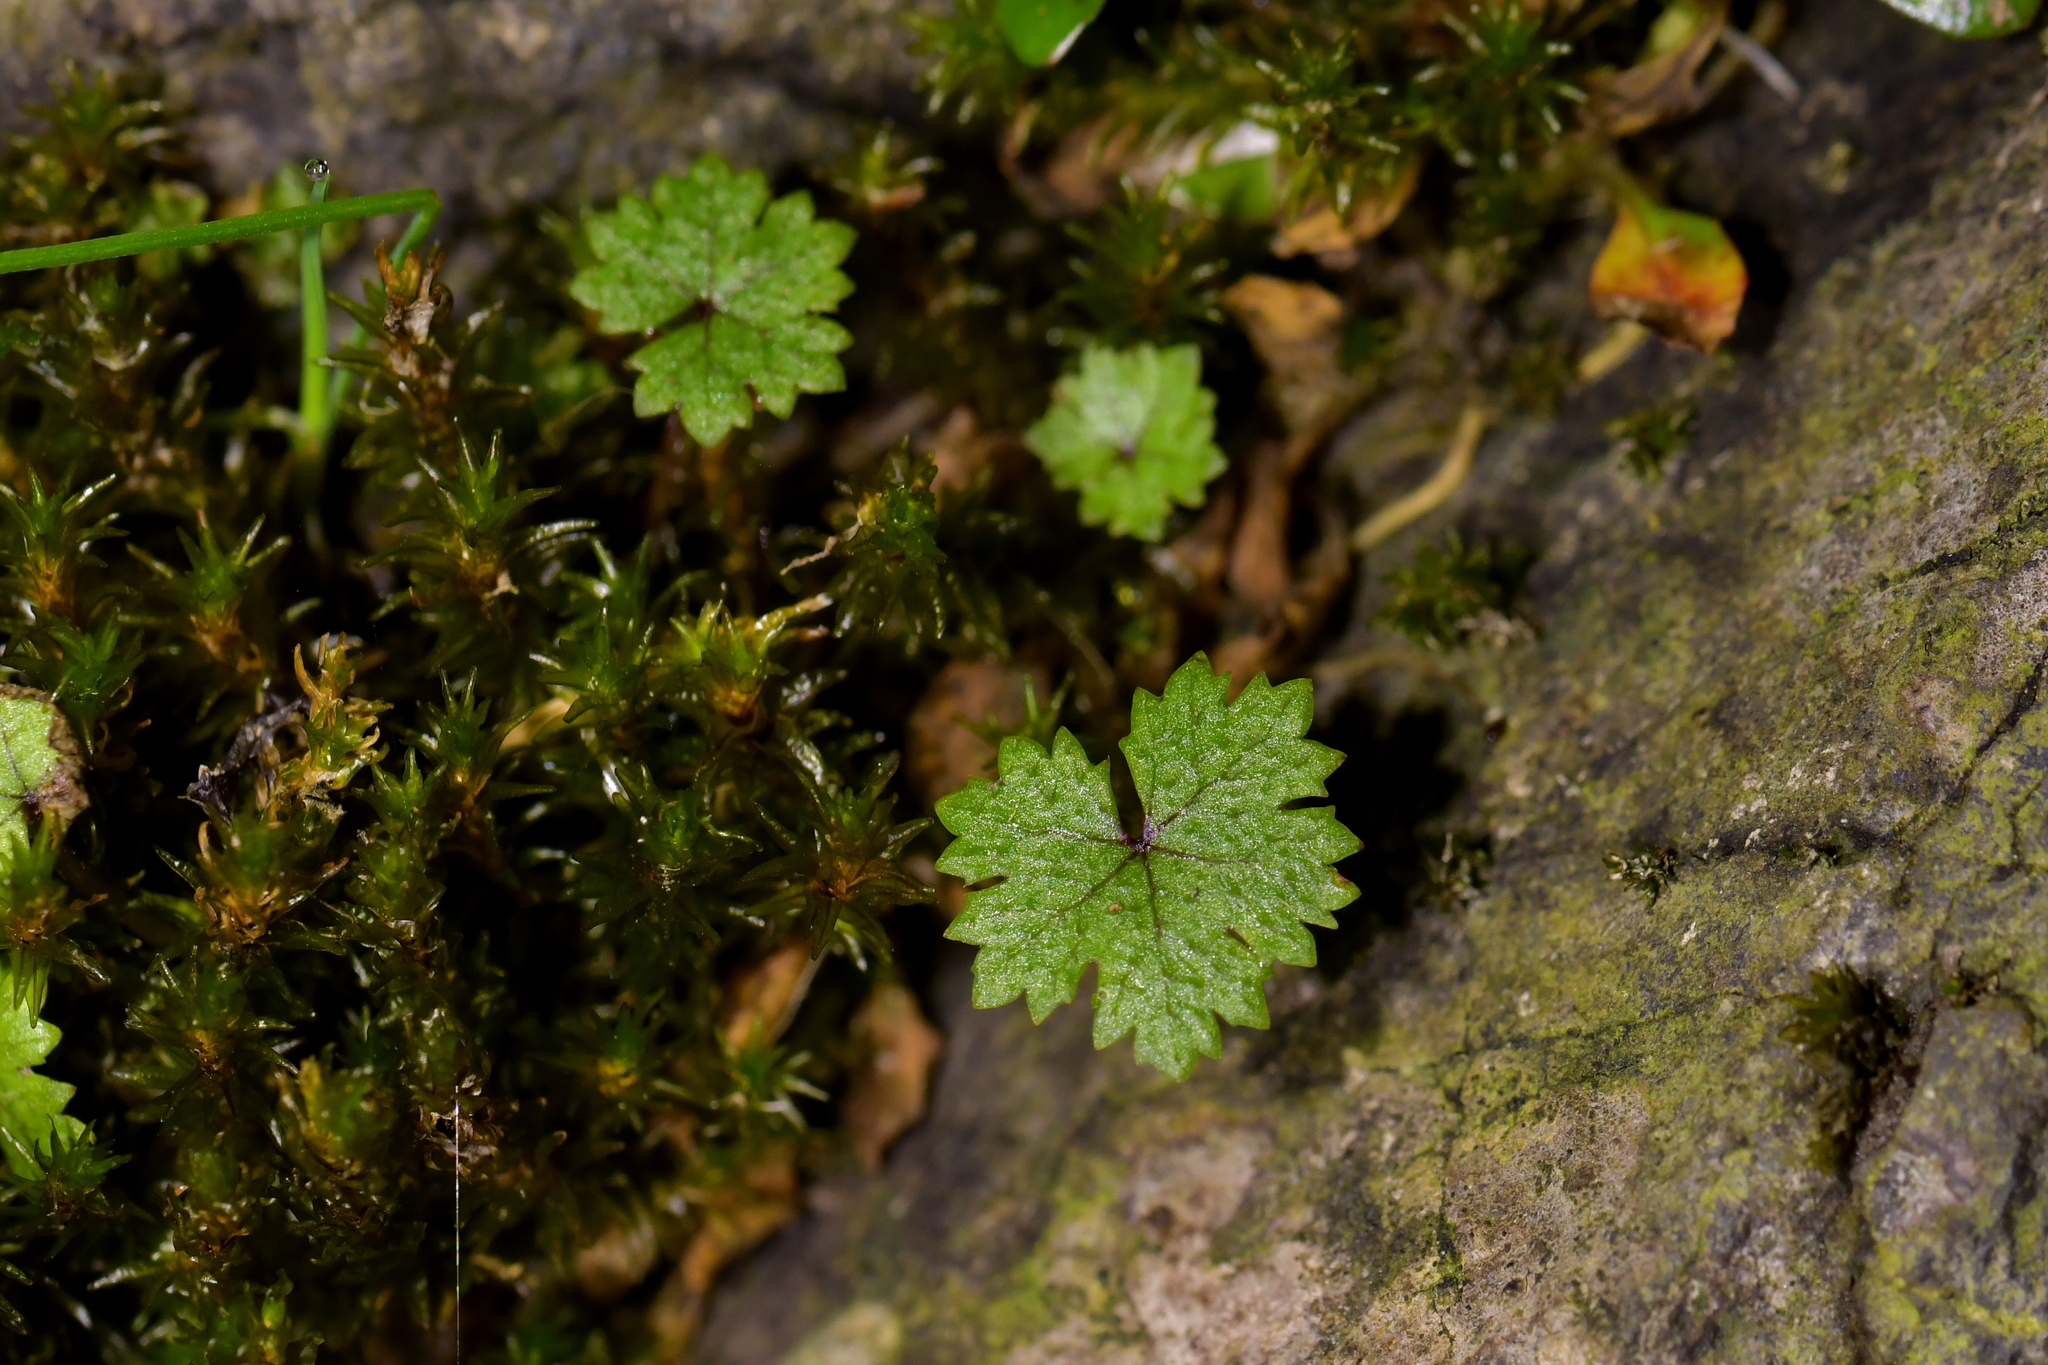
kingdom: Plantae
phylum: Tracheophyta
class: Magnoliopsida
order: Apiales
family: Araliaceae
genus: Hydrocotyle
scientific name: Hydrocotyle dissecta
